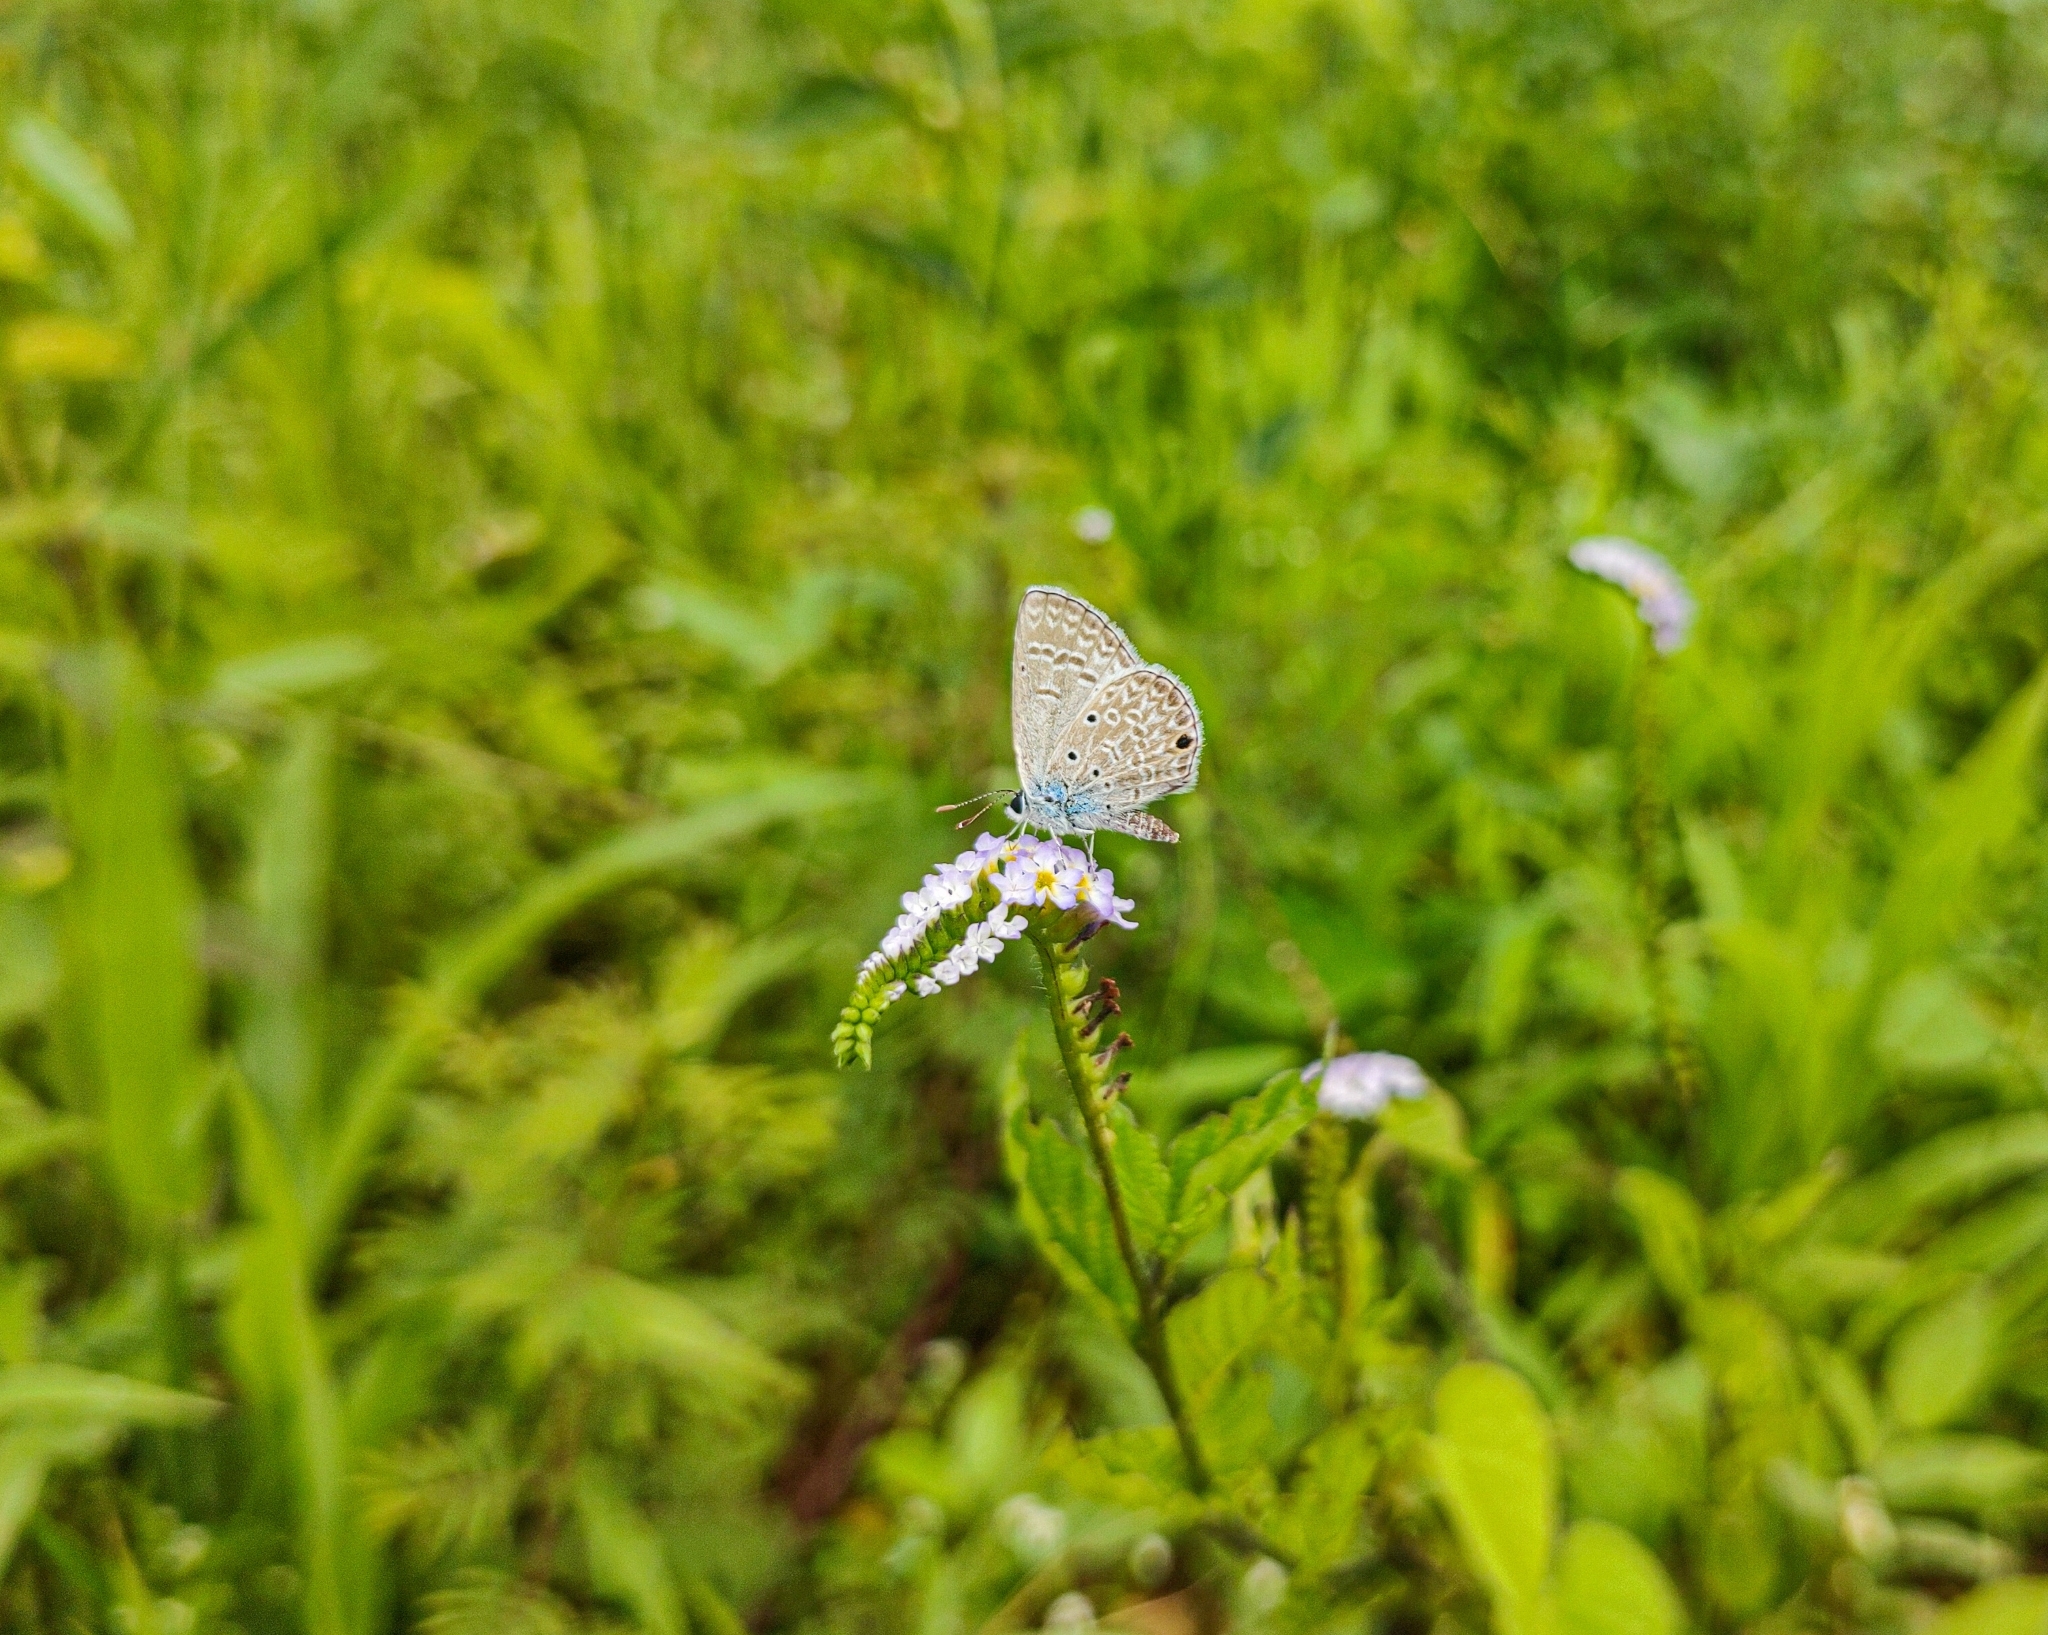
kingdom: Animalia
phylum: Arthropoda
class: Insecta
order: Lepidoptera
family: Lycaenidae
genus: Hemiargus
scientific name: Hemiargus hanno
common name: Common blue
